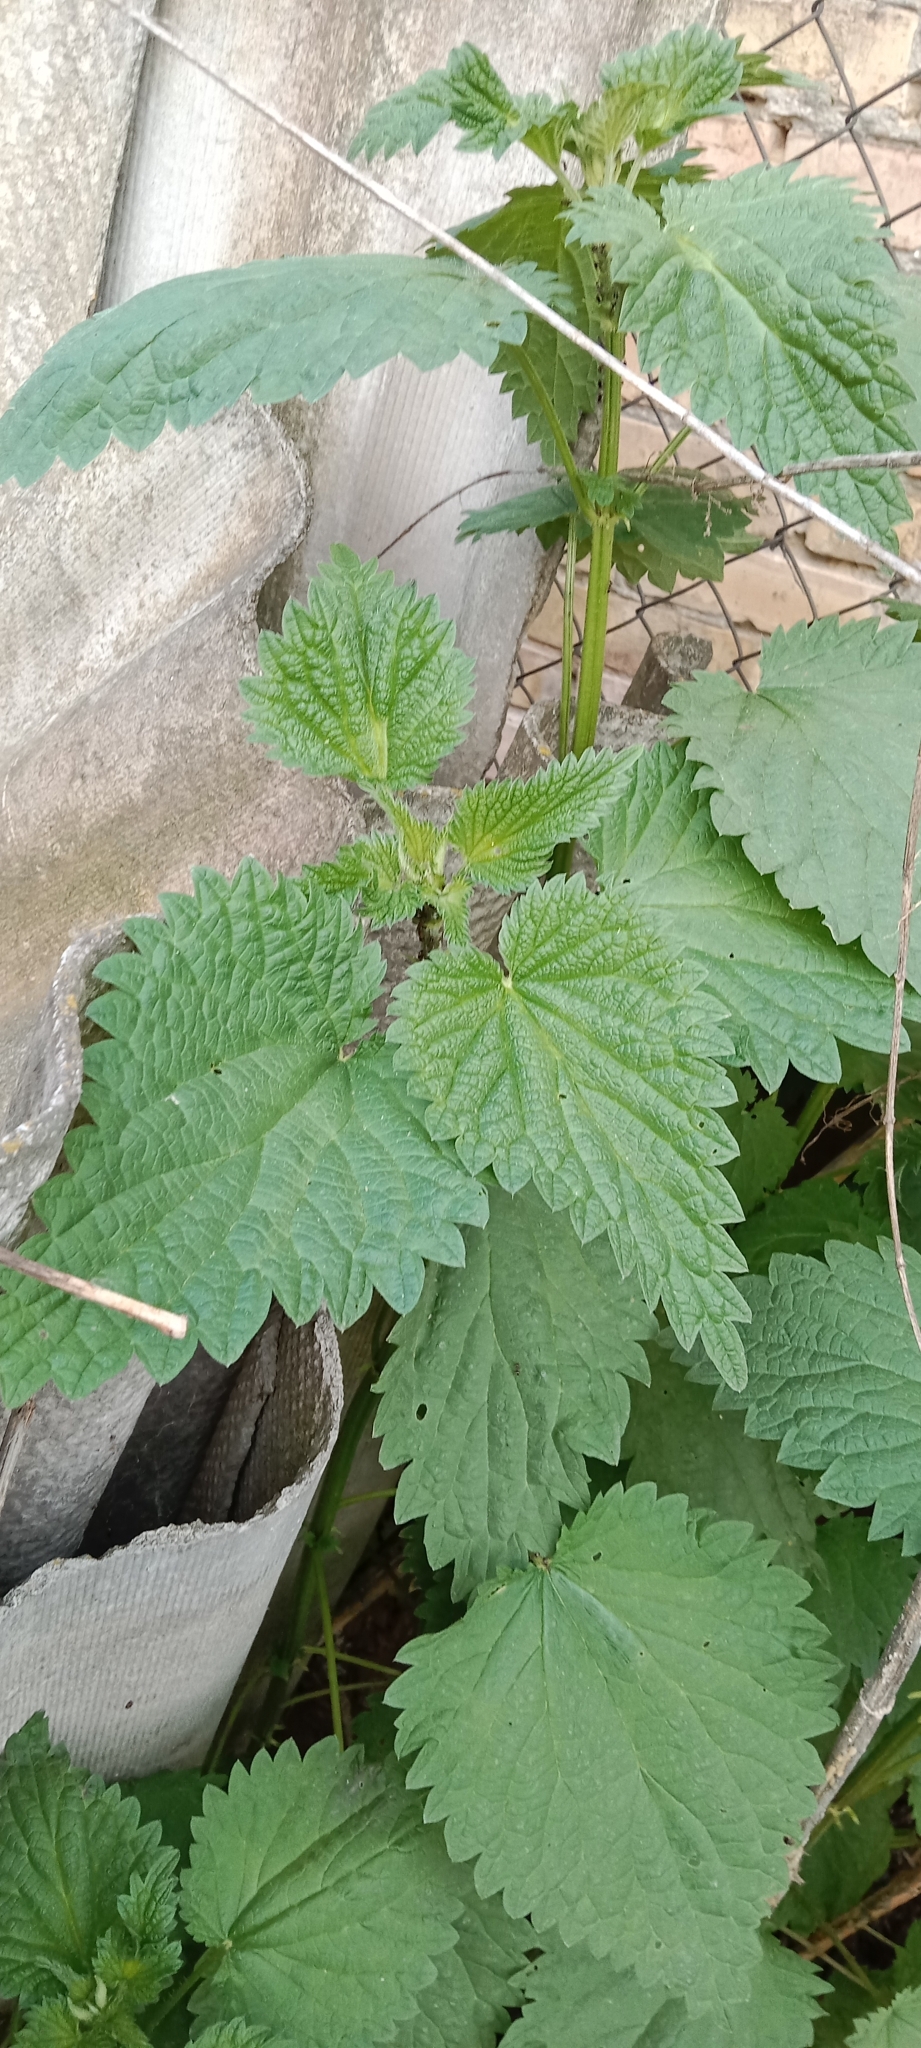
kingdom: Plantae
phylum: Tracheophyta
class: Magnoliopsida
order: Rosales
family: Urticaceae
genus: Urtica
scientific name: Urtica dioica
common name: Common nettle
